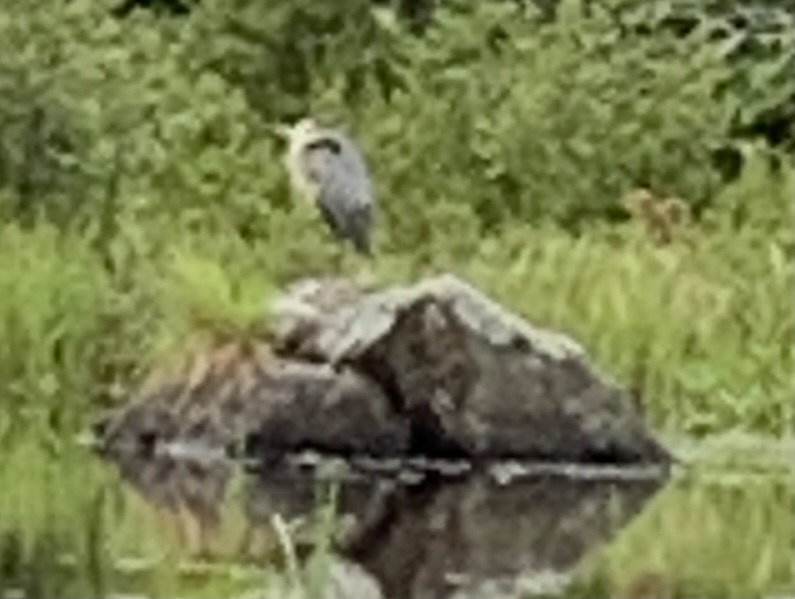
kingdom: Animalia
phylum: Chordata
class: Aves
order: Pelecaniformes
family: Ardeidae
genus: Ardea
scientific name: Ardea herodias
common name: Great blue heron
